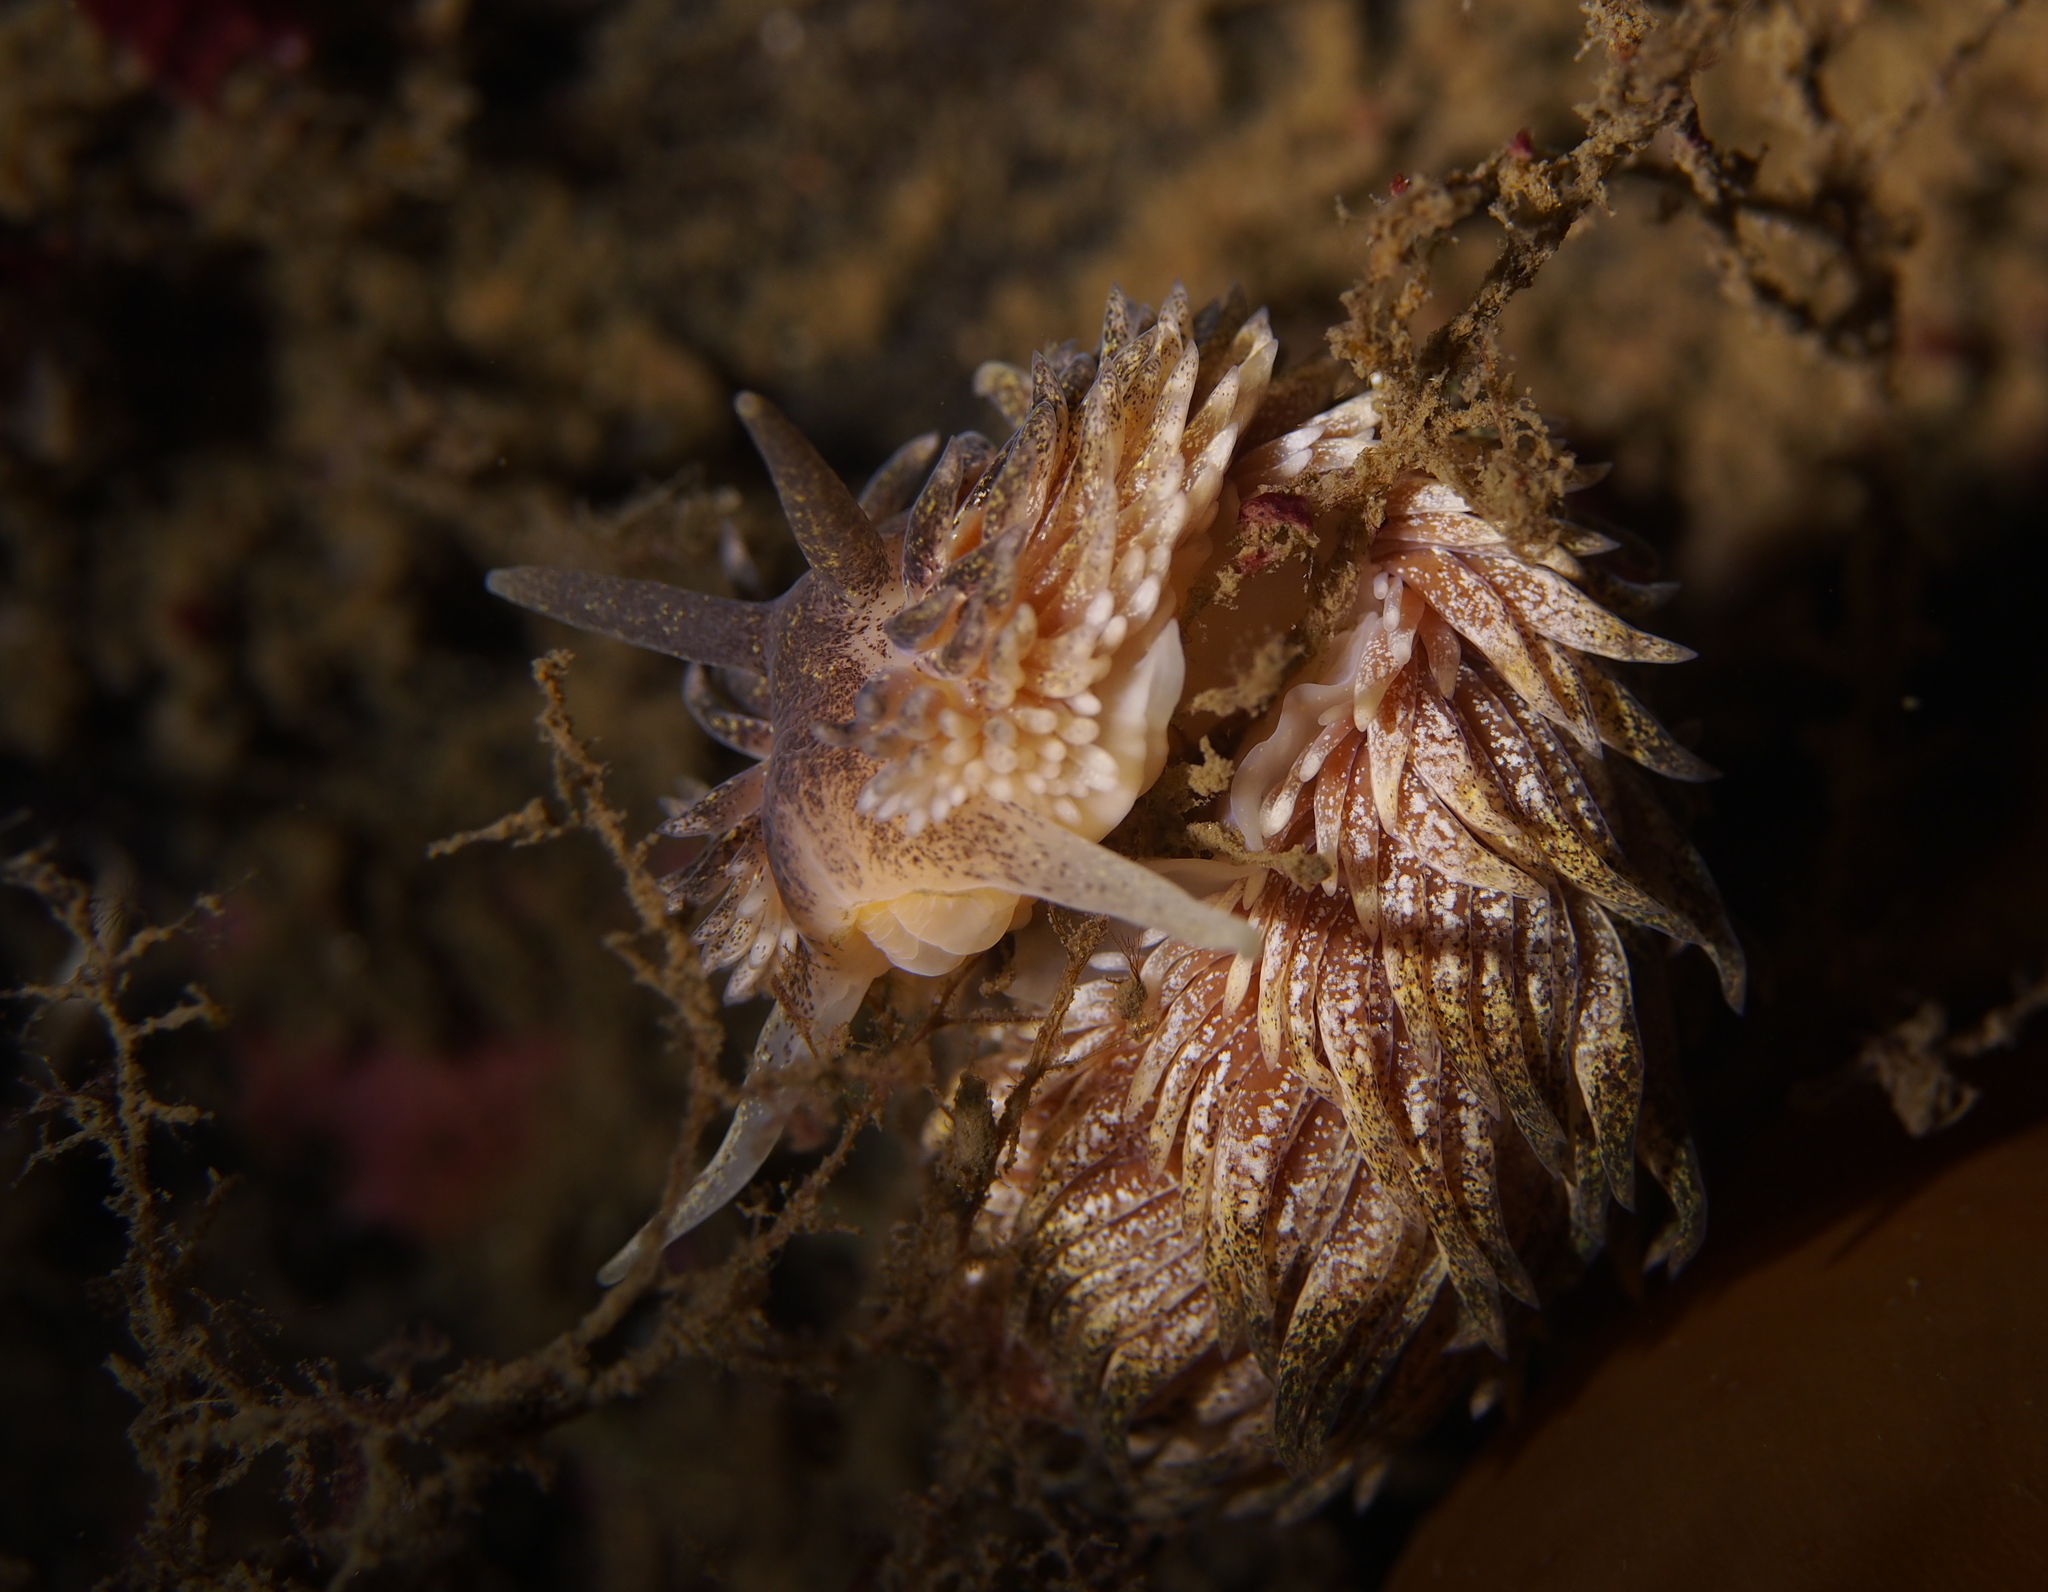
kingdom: Animalia
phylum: Mollusca
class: Gastropoda
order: Nudibranchia
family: Aeolidiidae
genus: Aeolidia
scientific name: Aeolidia papillosa
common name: Common grey sea slug
